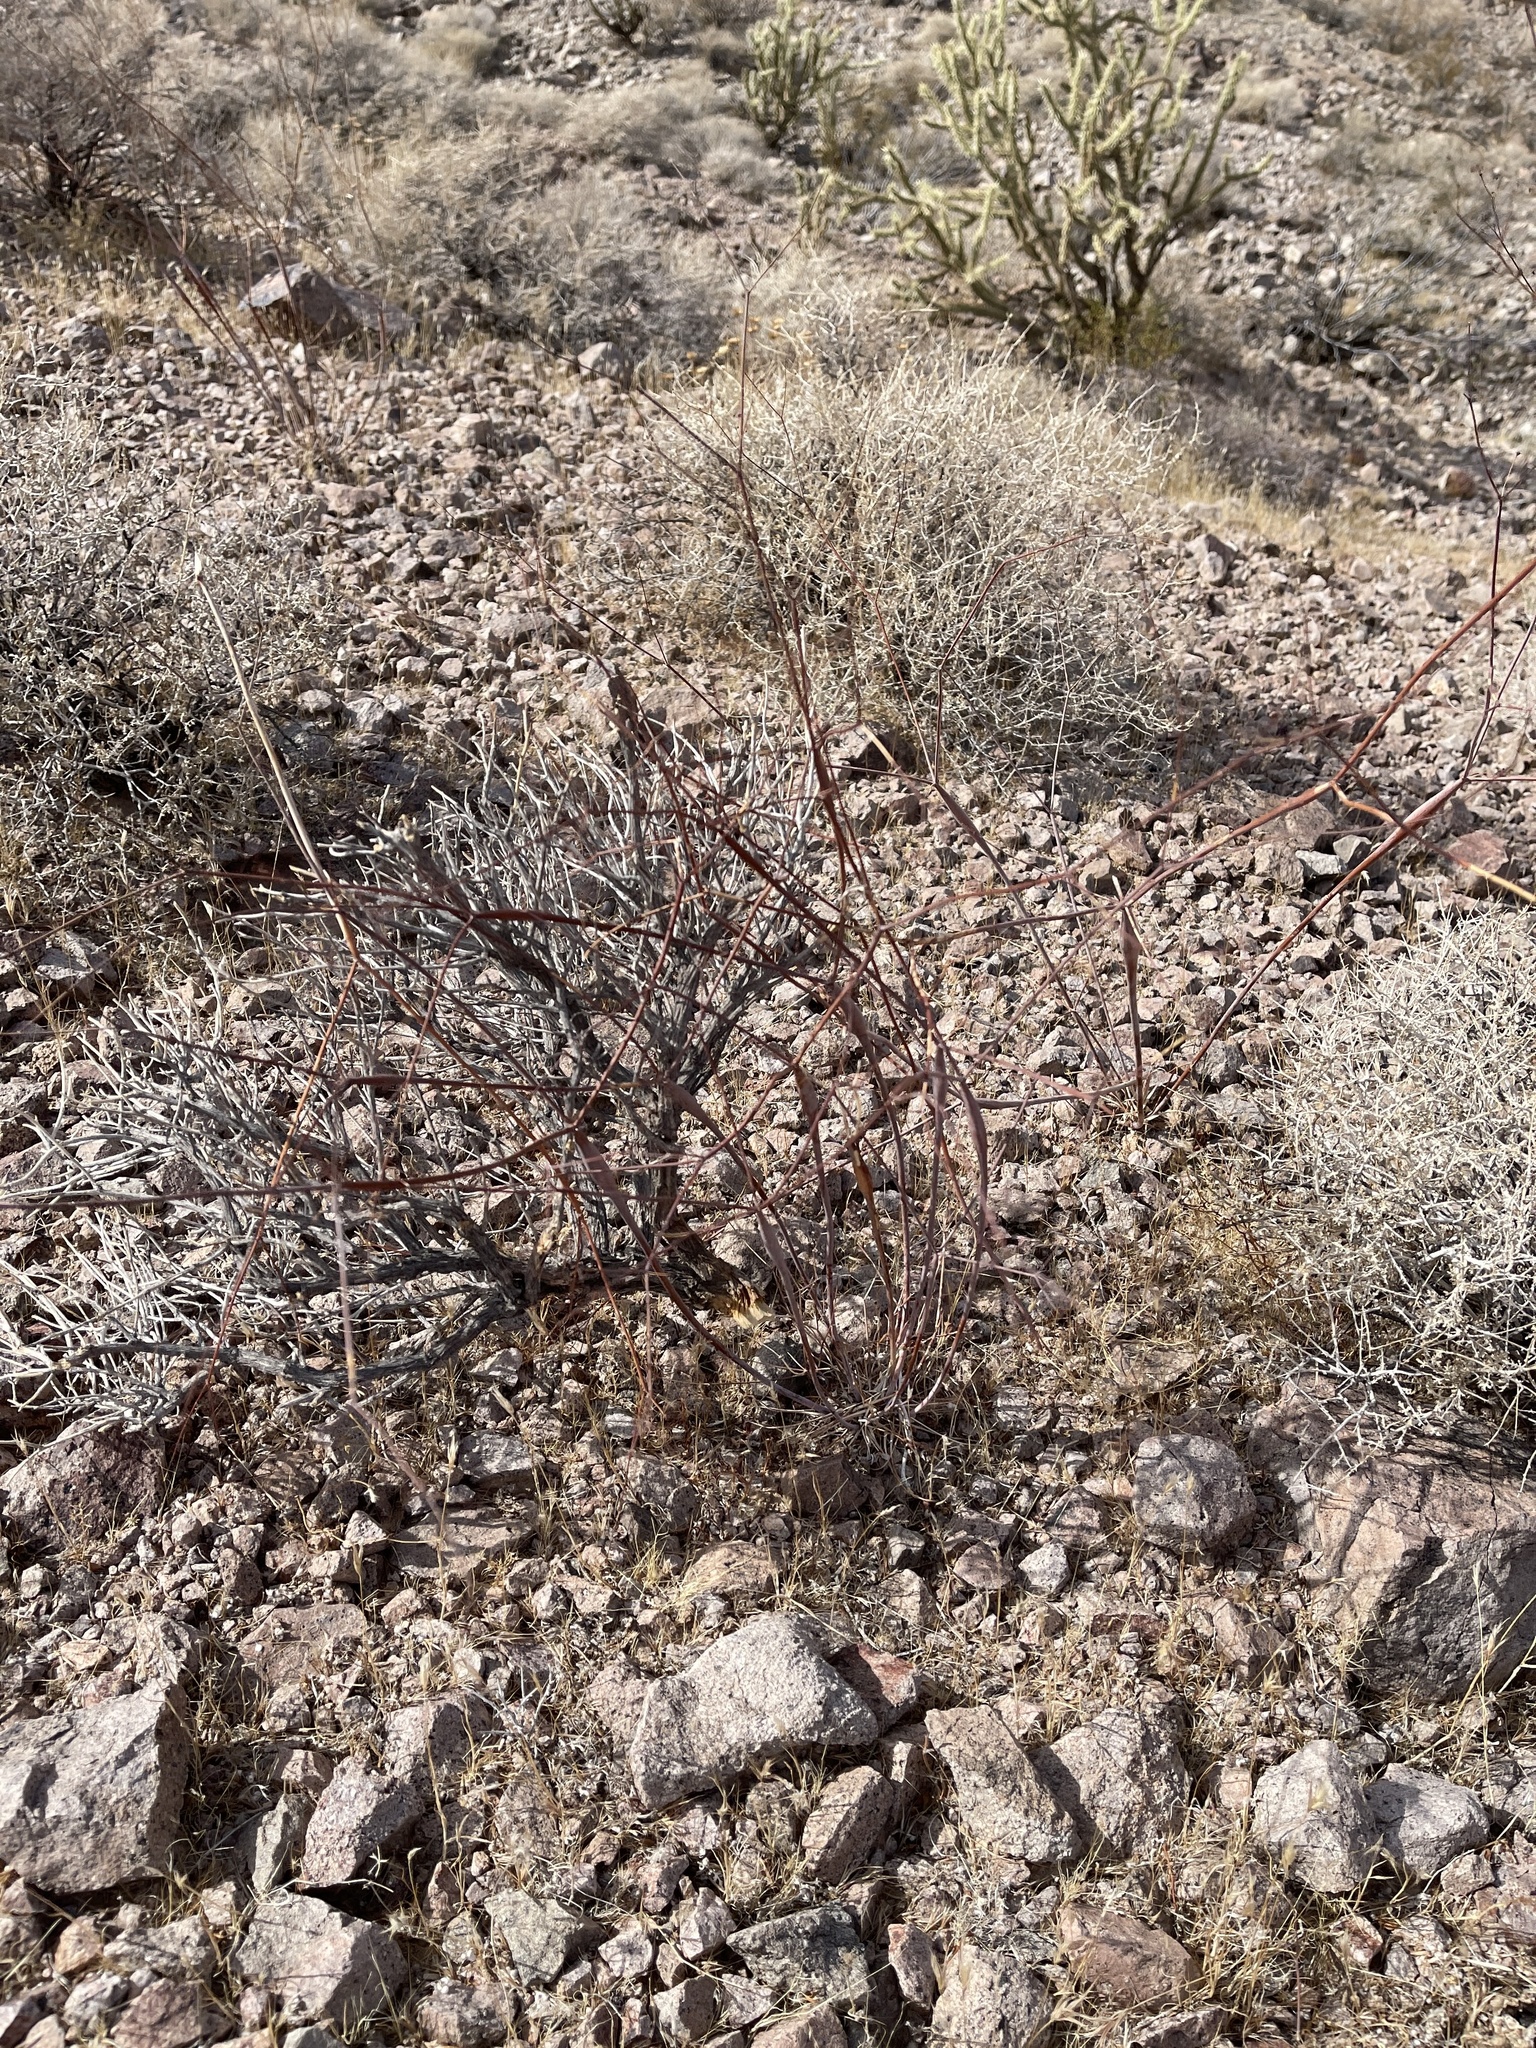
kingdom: Plantae
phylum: Tracheophyta
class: Magnoliopsida
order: Caryophyllales
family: Polygonaceae
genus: Eriogonum
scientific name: Eriogonum inflatum
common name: Desert trumpet
